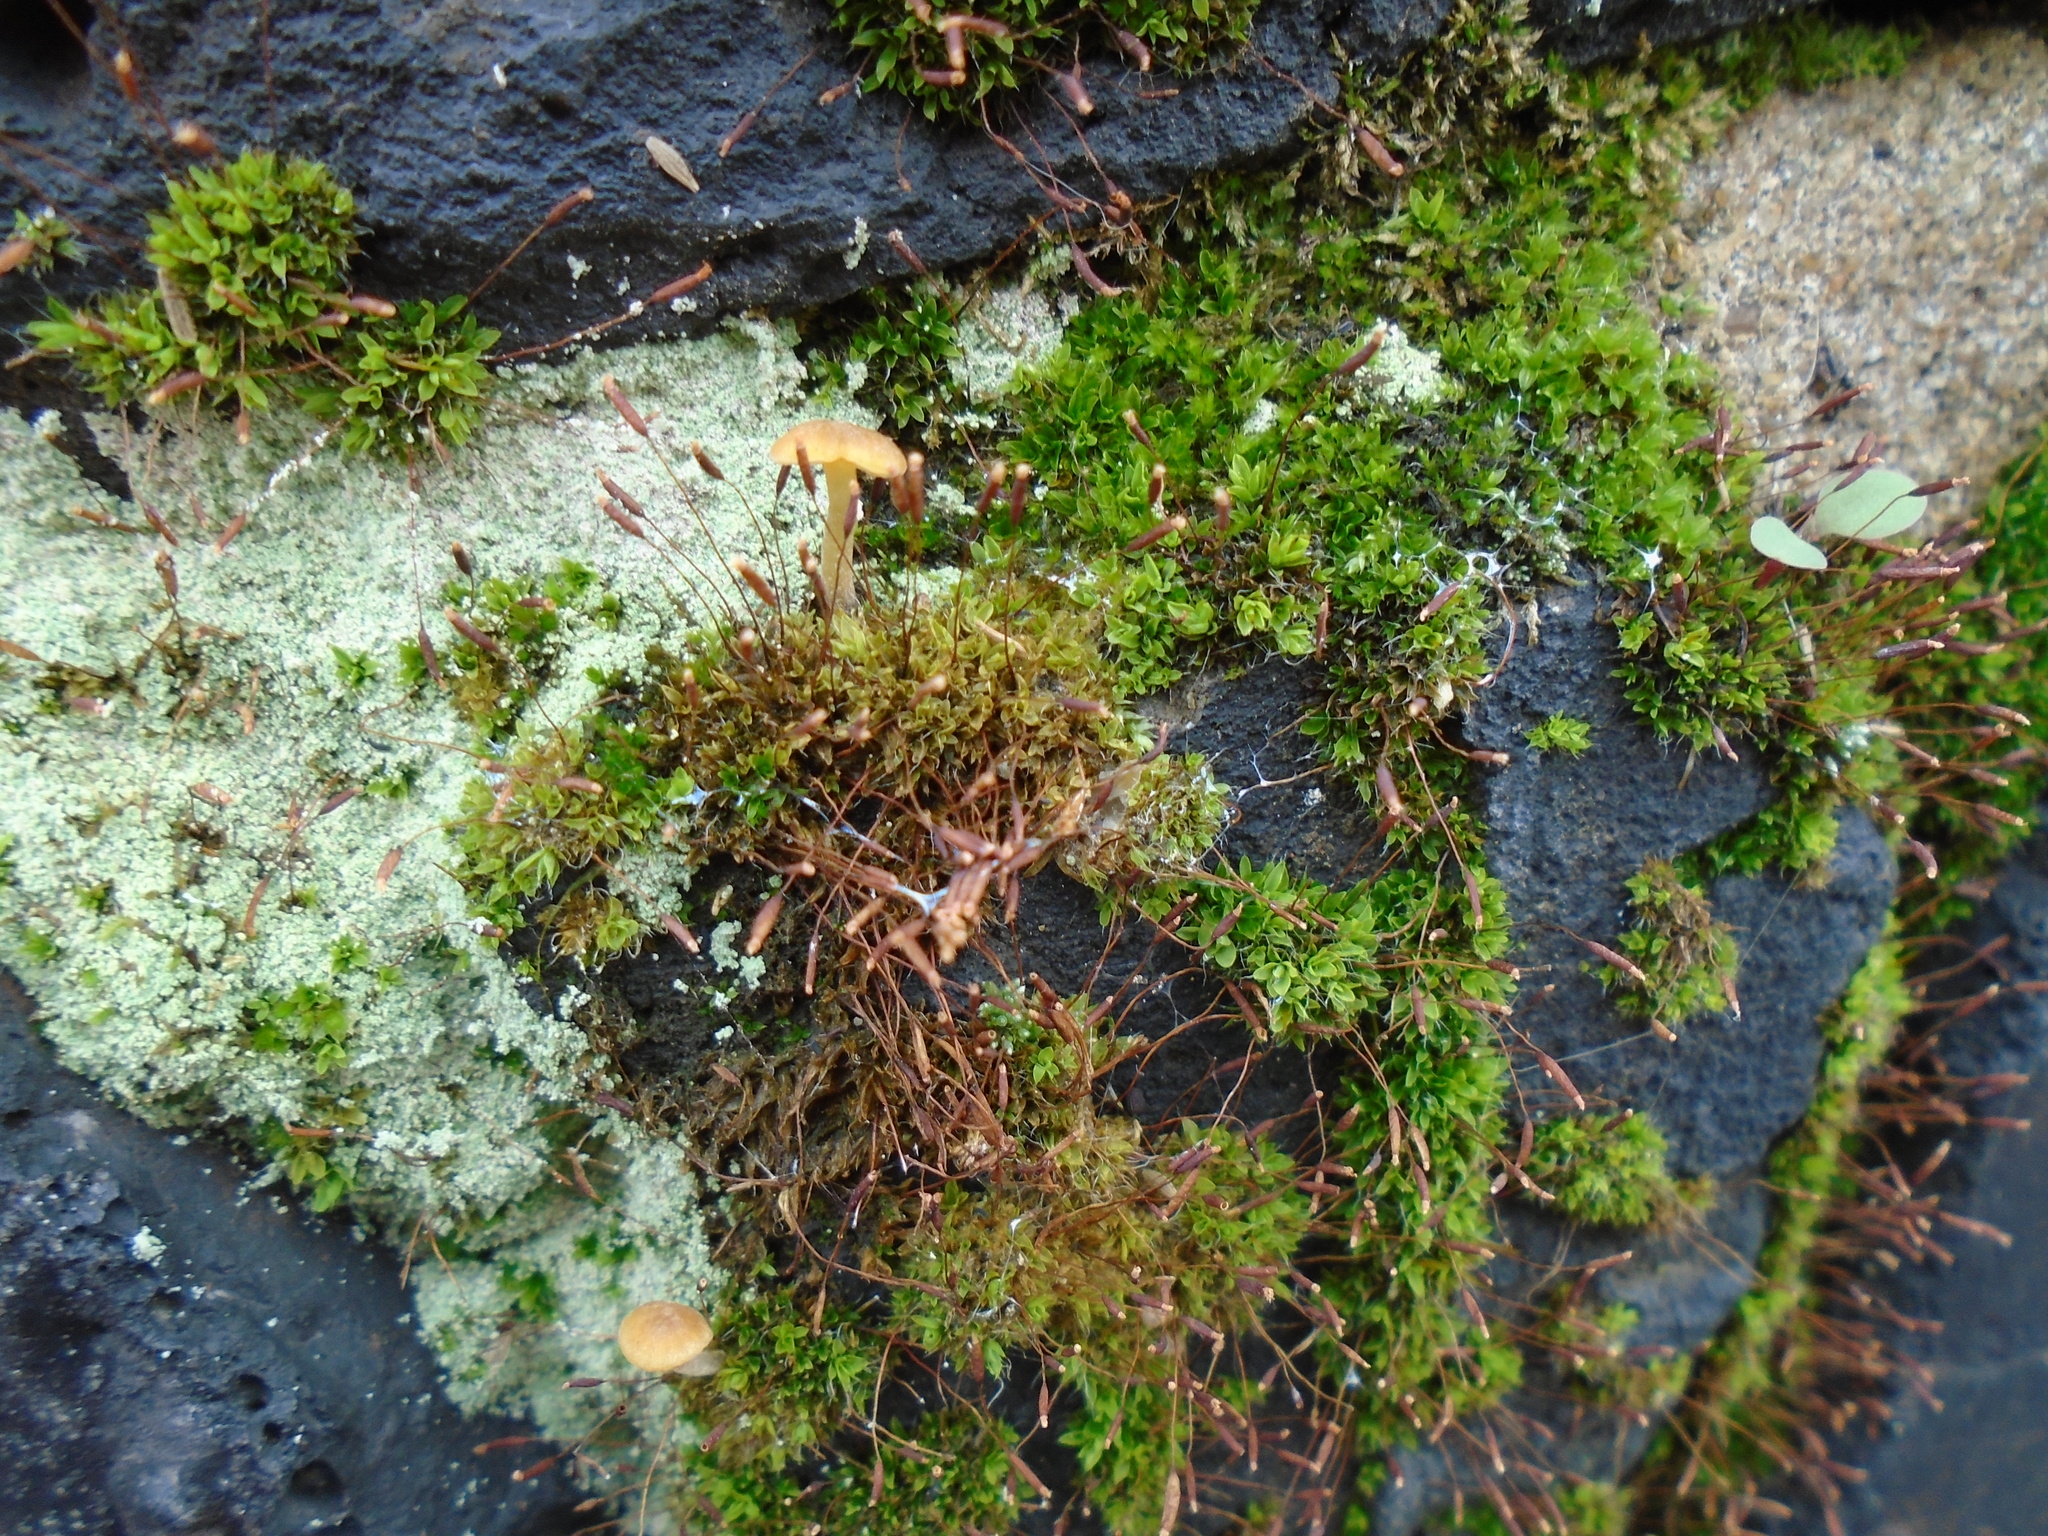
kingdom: Plantae
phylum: Bryophyta
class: Bryopsida
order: Pottiales
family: Pottiaceae
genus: Tortula
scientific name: Tortula muralis
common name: Wall screw-moss
